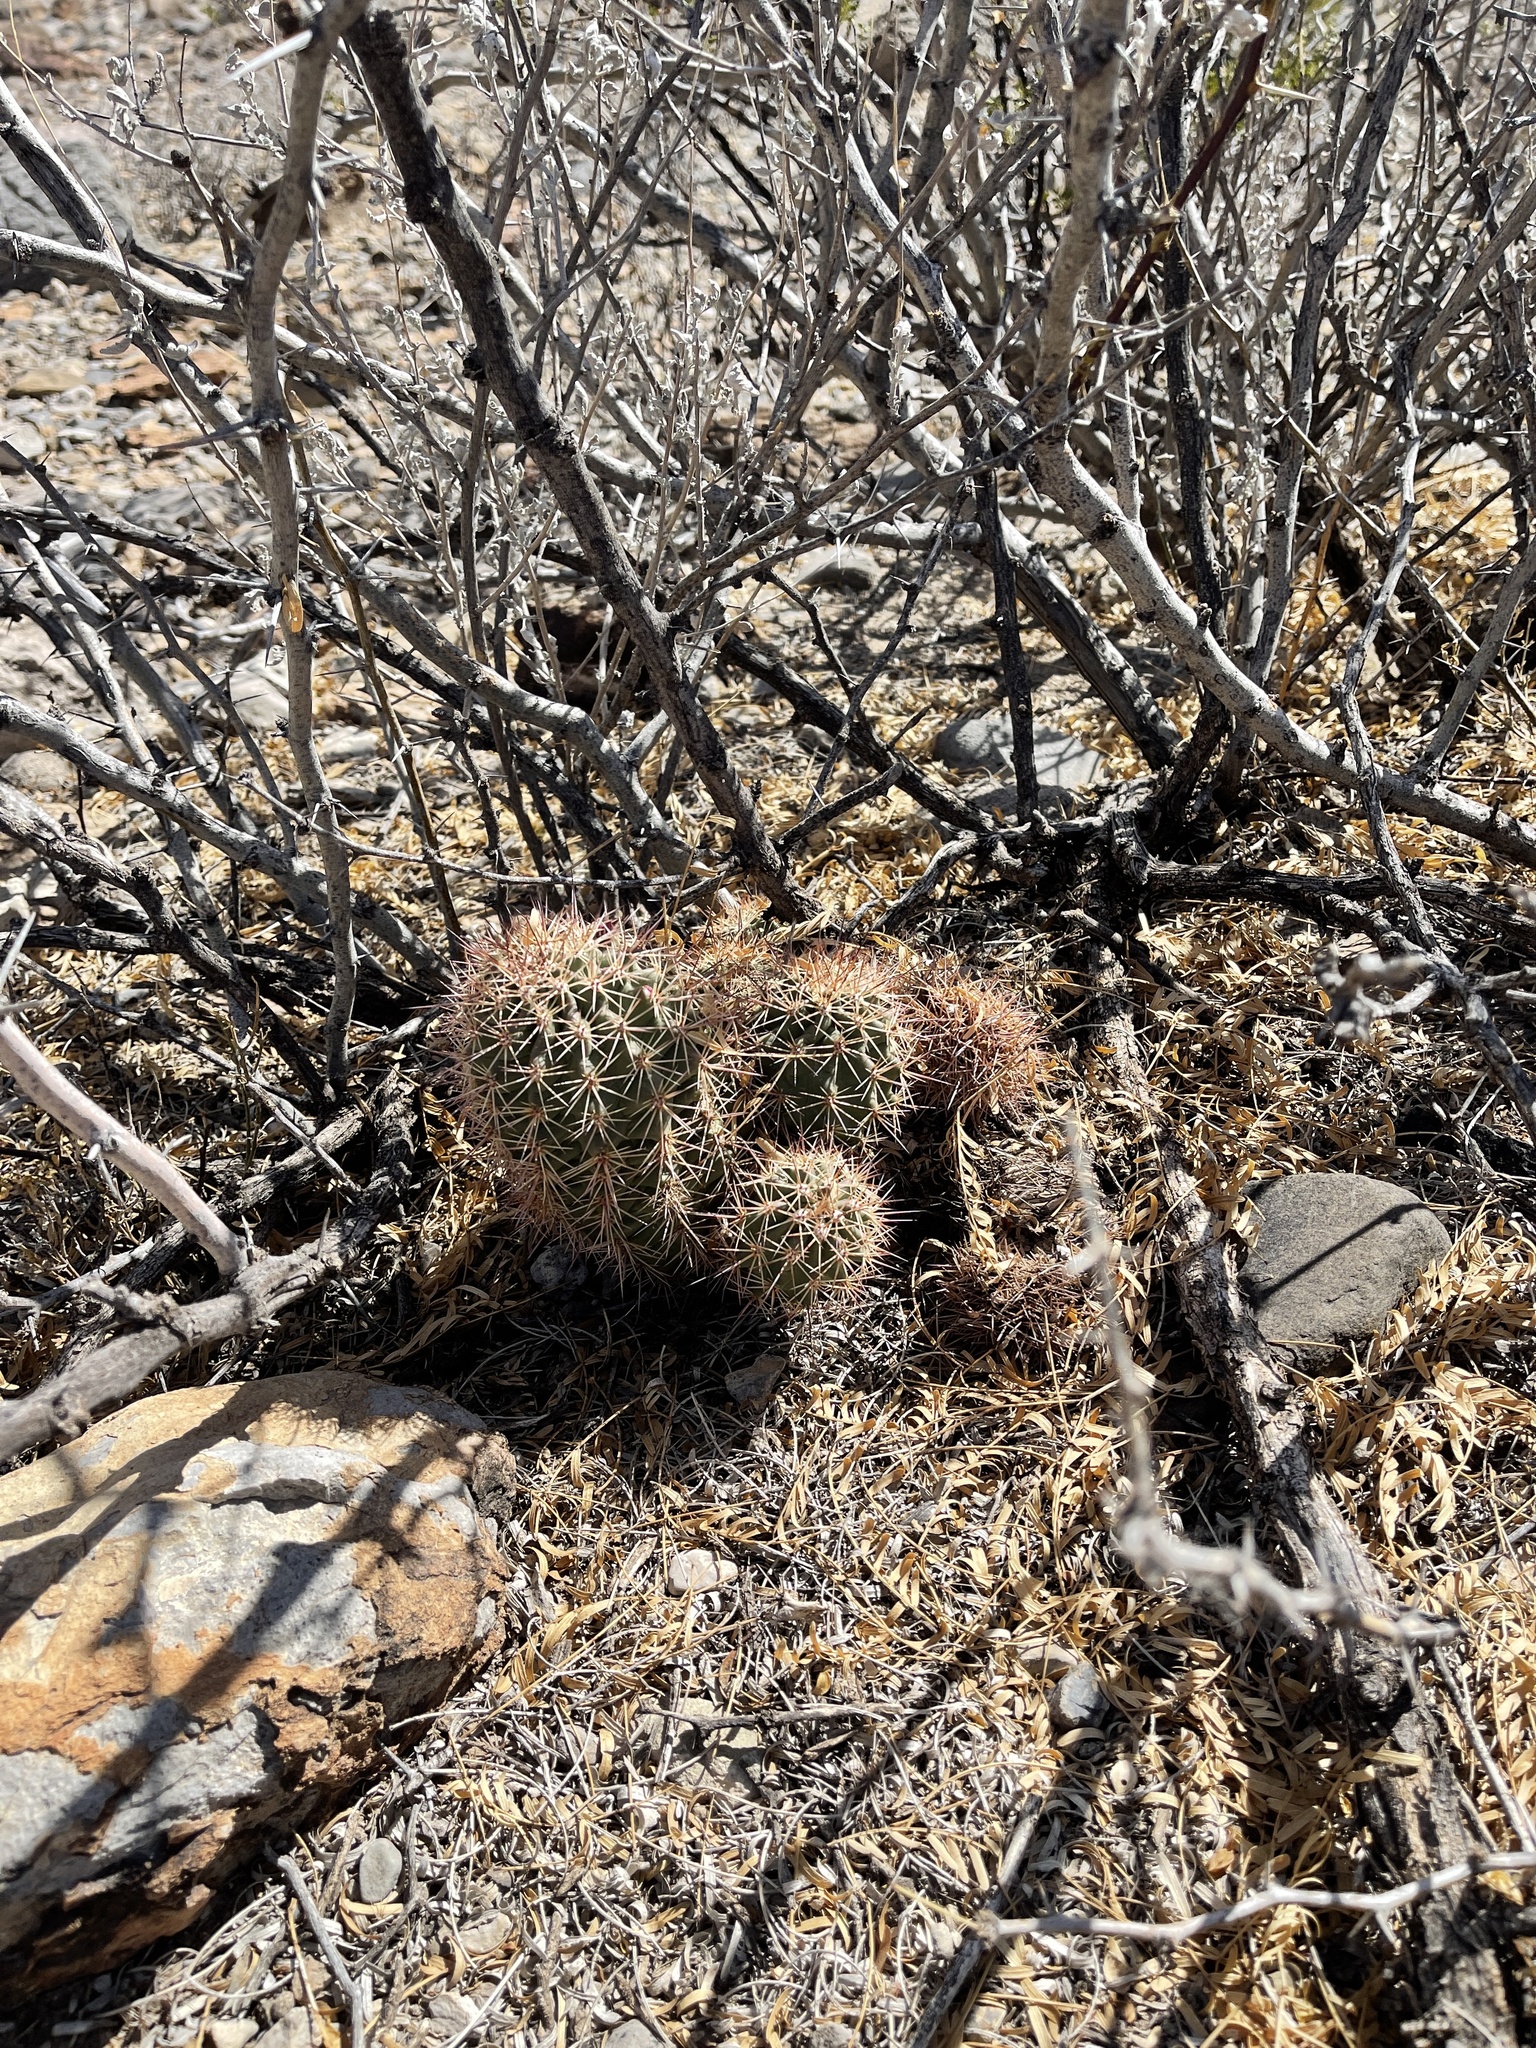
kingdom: Plantae
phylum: Tracheophyta
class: Magnoliopsida
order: Caryophyllales
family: Cactaceae
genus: Echinocereus
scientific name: Echinocereus coccineus
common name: Scarlet hedgehog cactus
